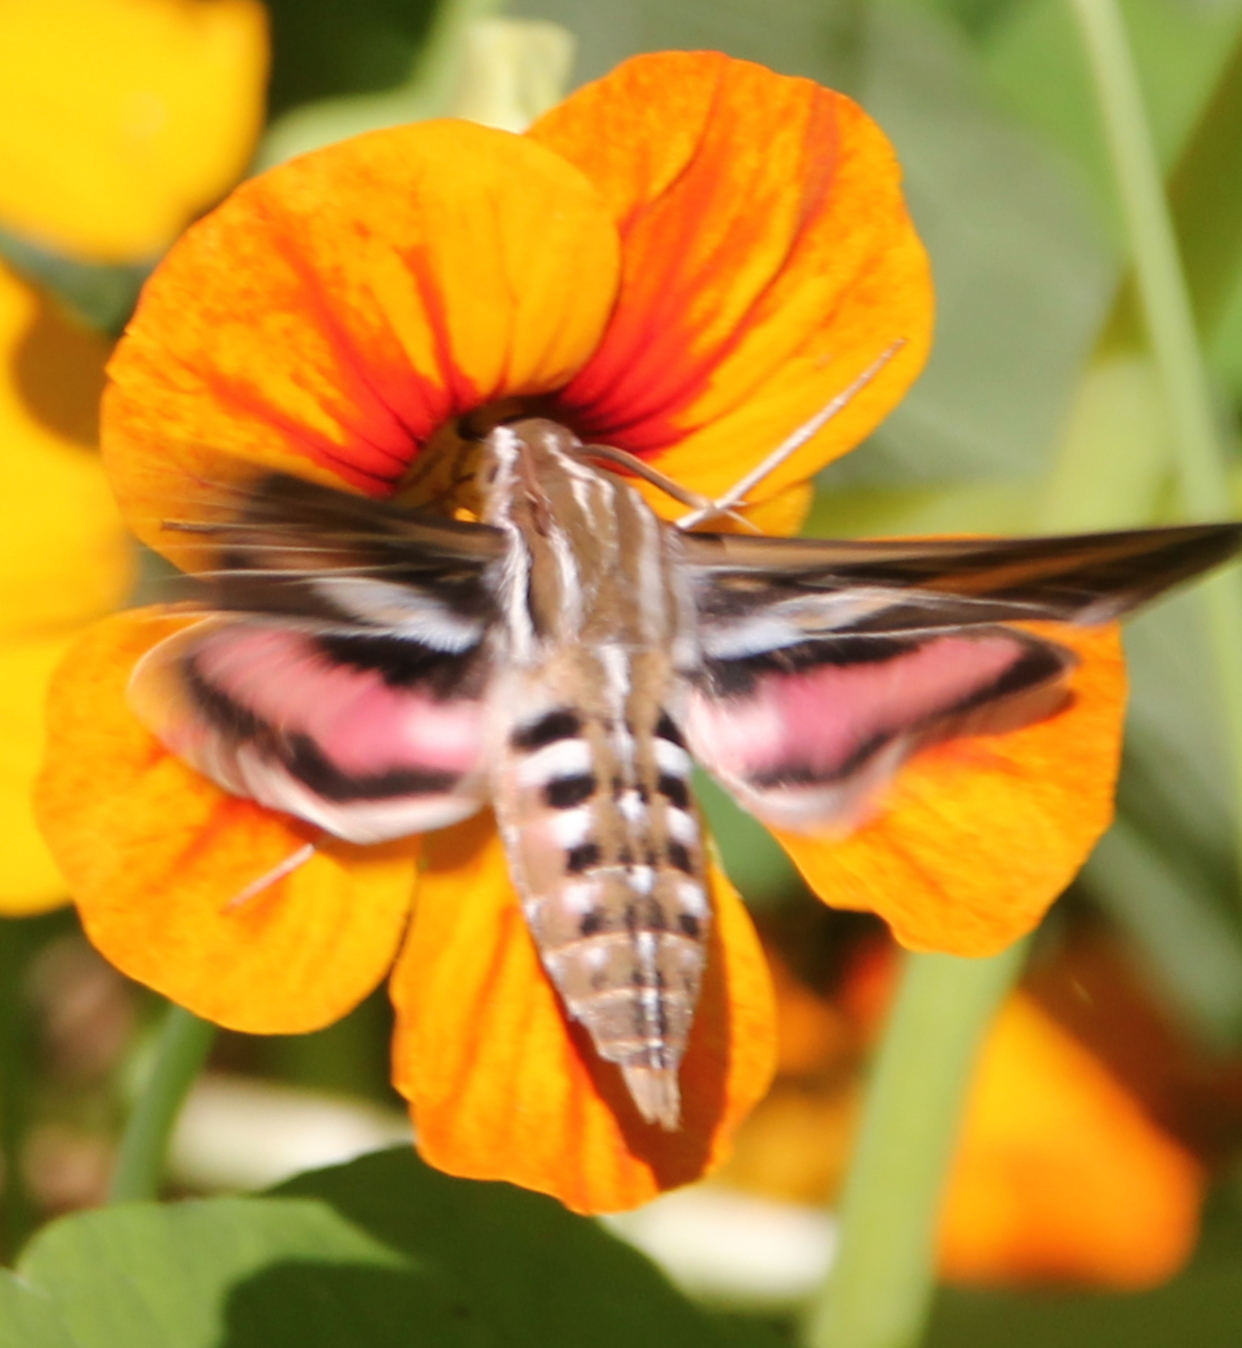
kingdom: Animalia
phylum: Arthropoda
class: Insecta
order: Lepidoptera
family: Sphingidae
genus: Hyles
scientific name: Hyles lineata
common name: White-lined sphinx
